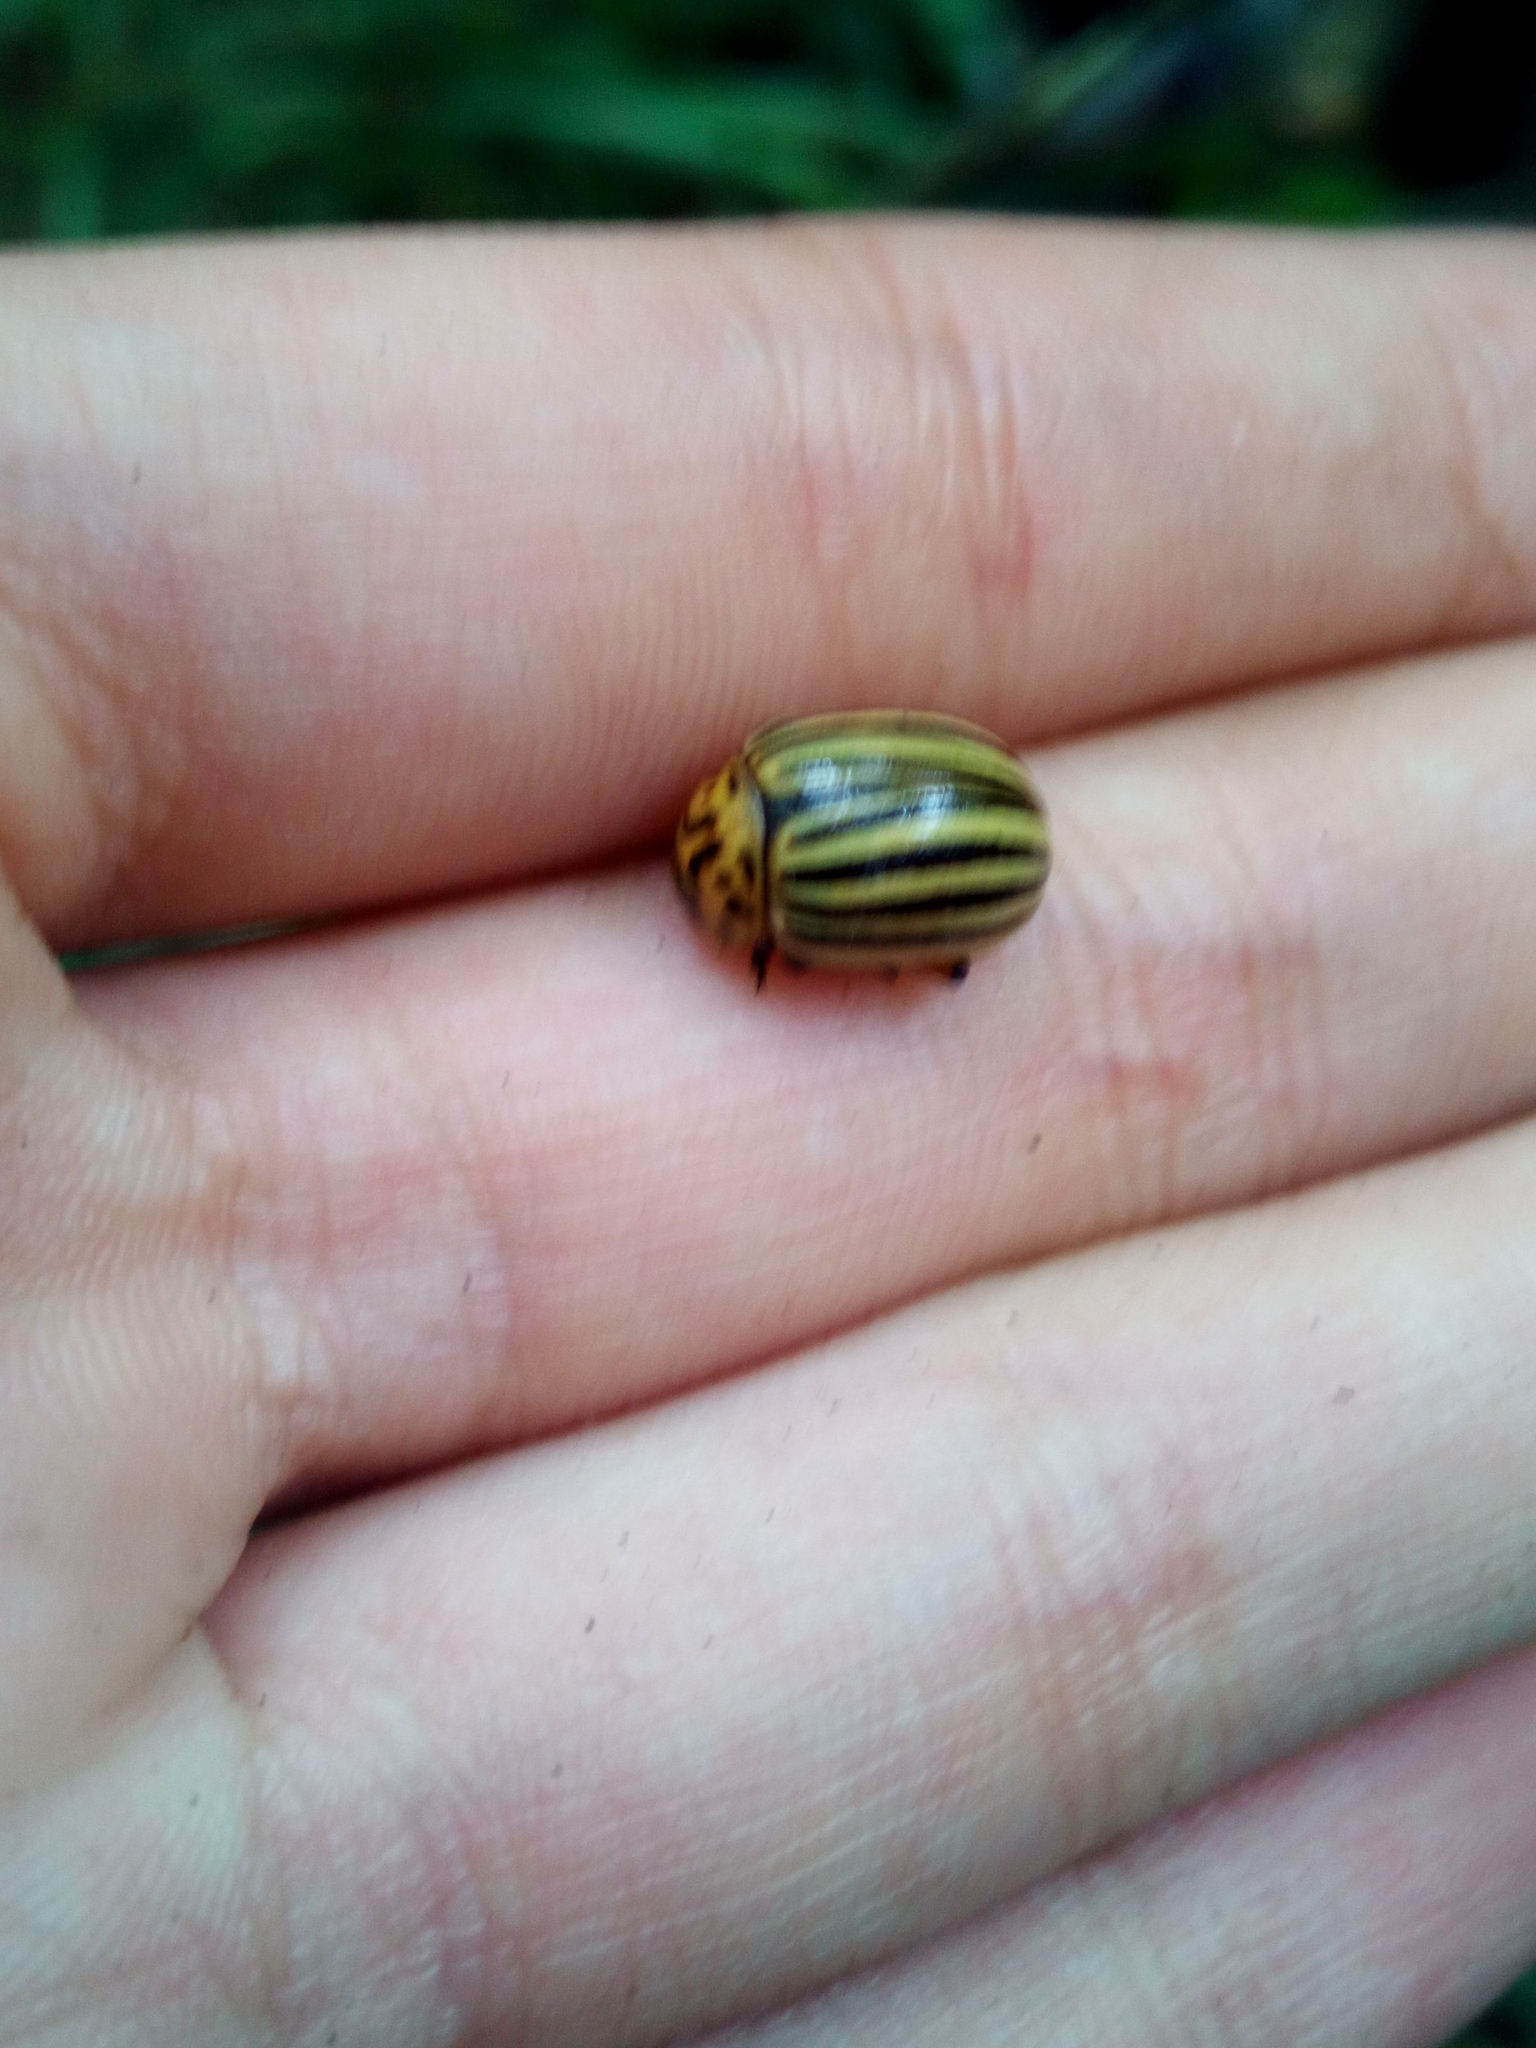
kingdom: Animalia
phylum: Arthropoda
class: Insecta
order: Coleoptera
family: Chrysomelidae
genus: Leptinotarsa
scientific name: Leptinotarsa decemlineata
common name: Colorado potato beetle
